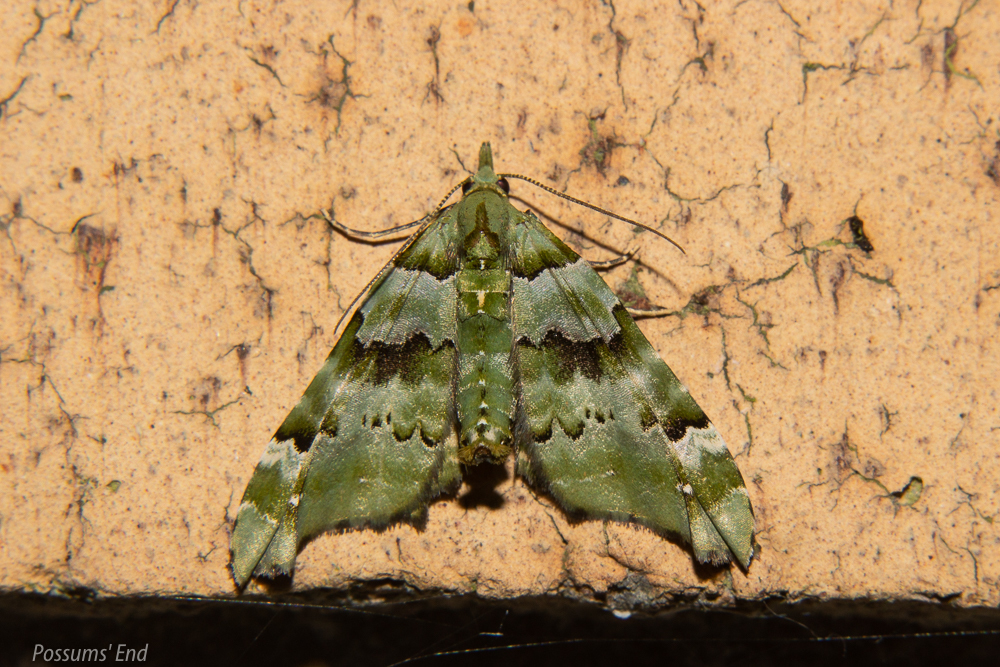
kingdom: Animalia
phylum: Arthropoda
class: Insecta
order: Lepidoptera
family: Geometridae
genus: Elvia
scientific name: Elvia glaucata
